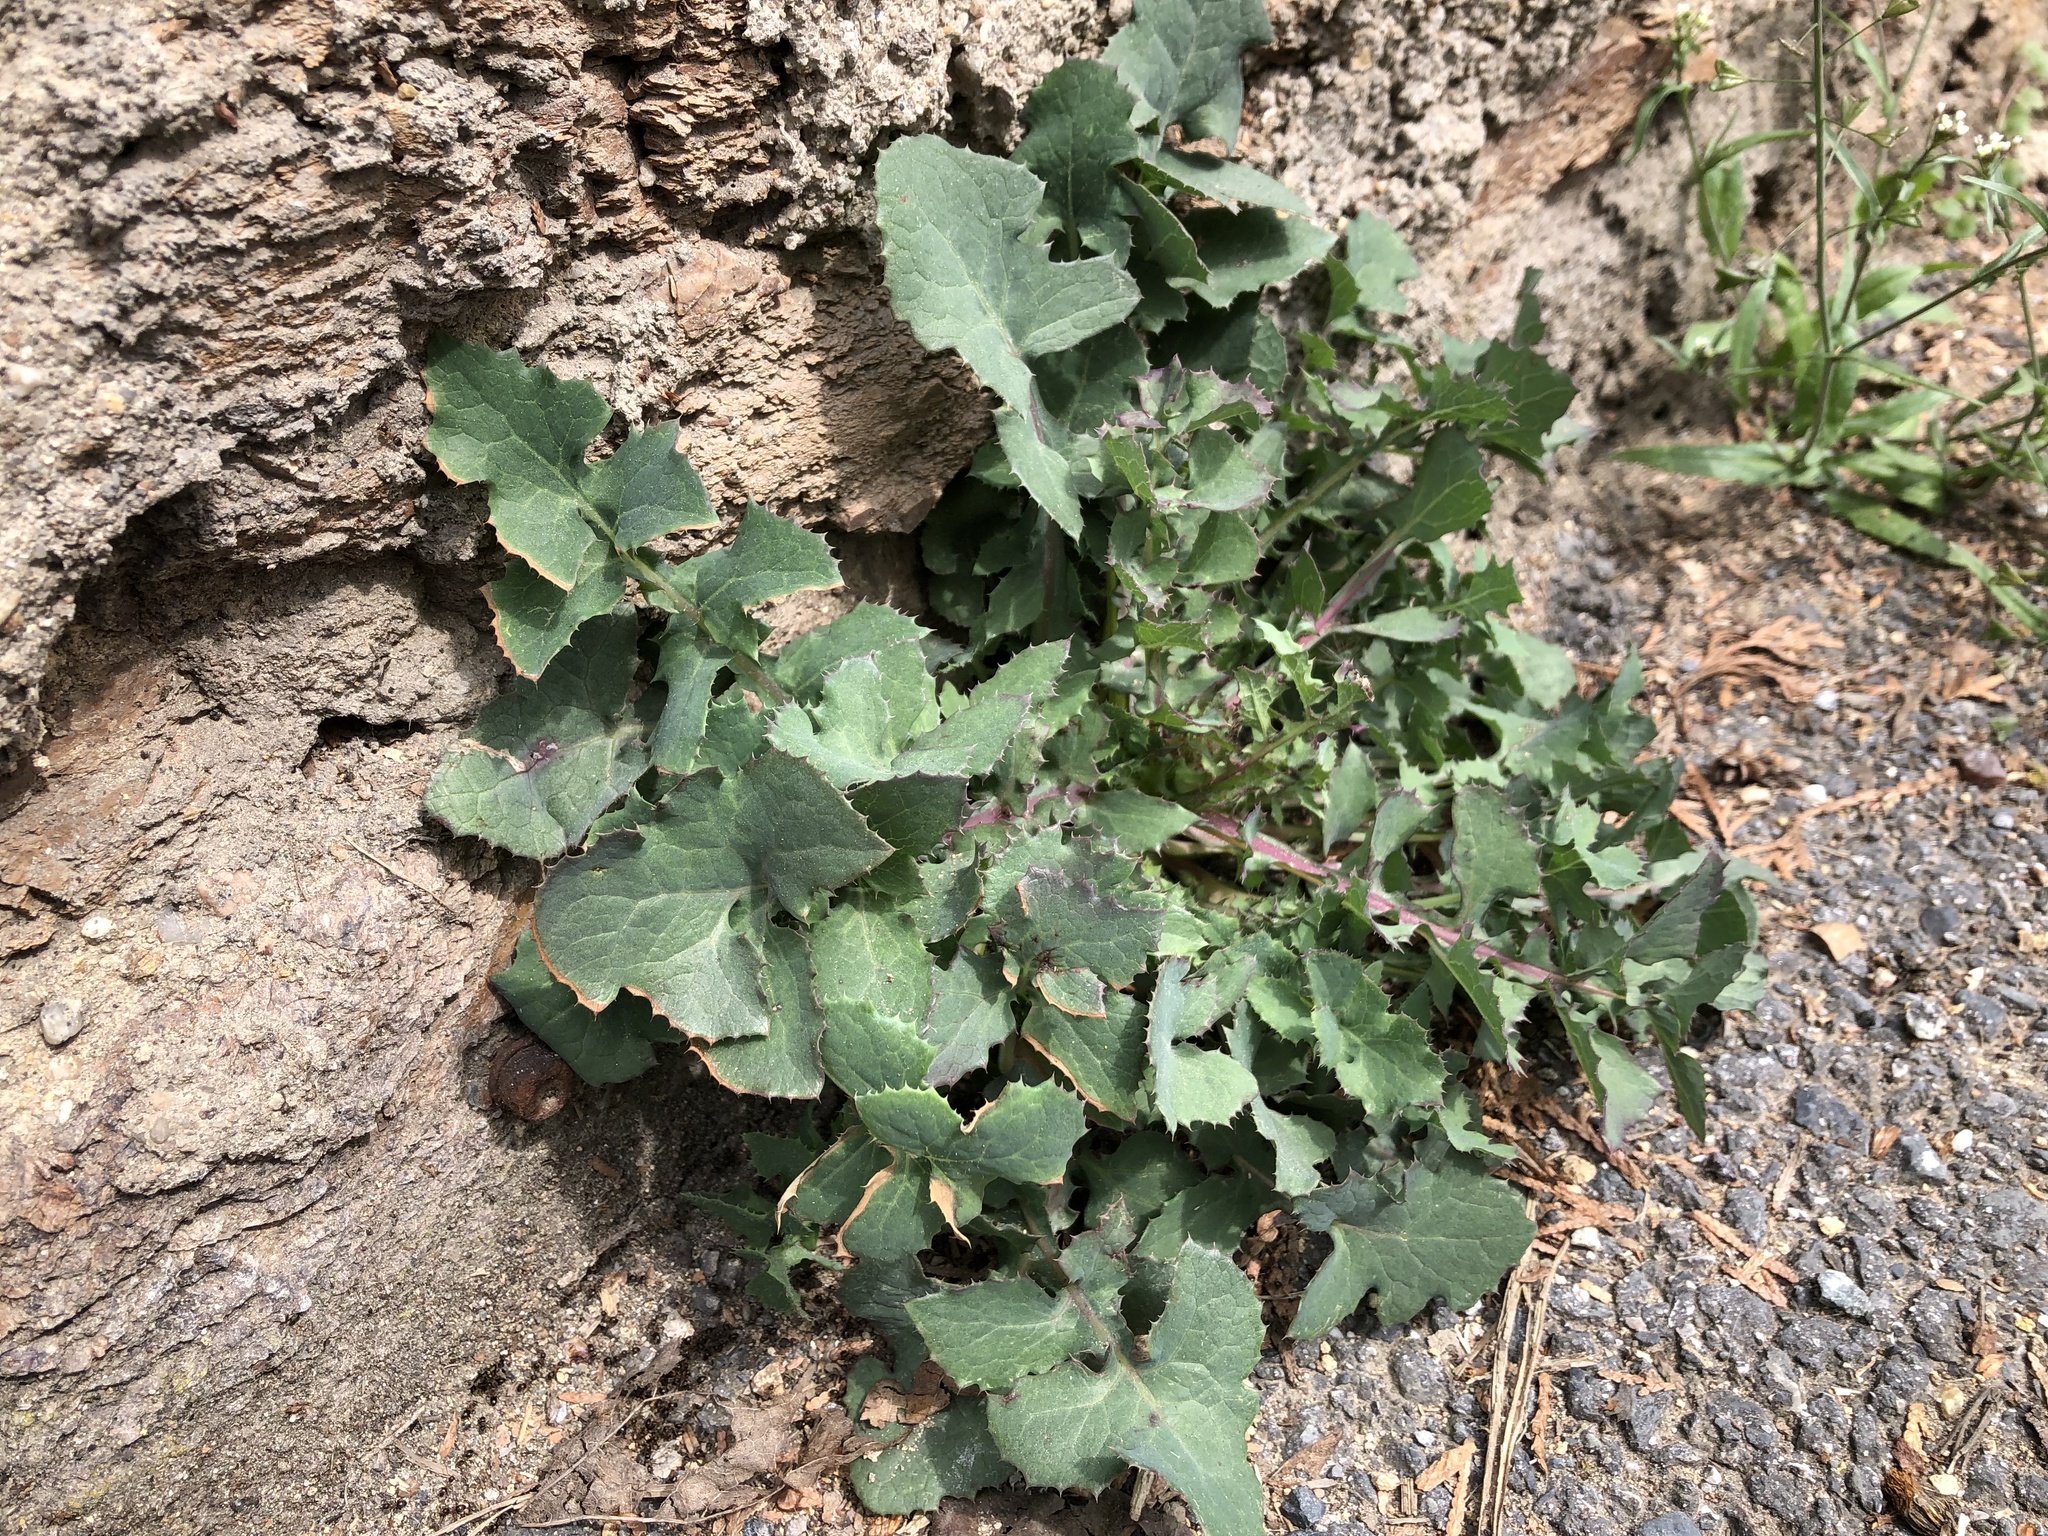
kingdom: Plantae
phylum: Tracheophyta
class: Magnoliopsida
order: Asterales
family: Asteraceae
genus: Sonchus
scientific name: Sonchus oleraceus
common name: Common sowthistle
